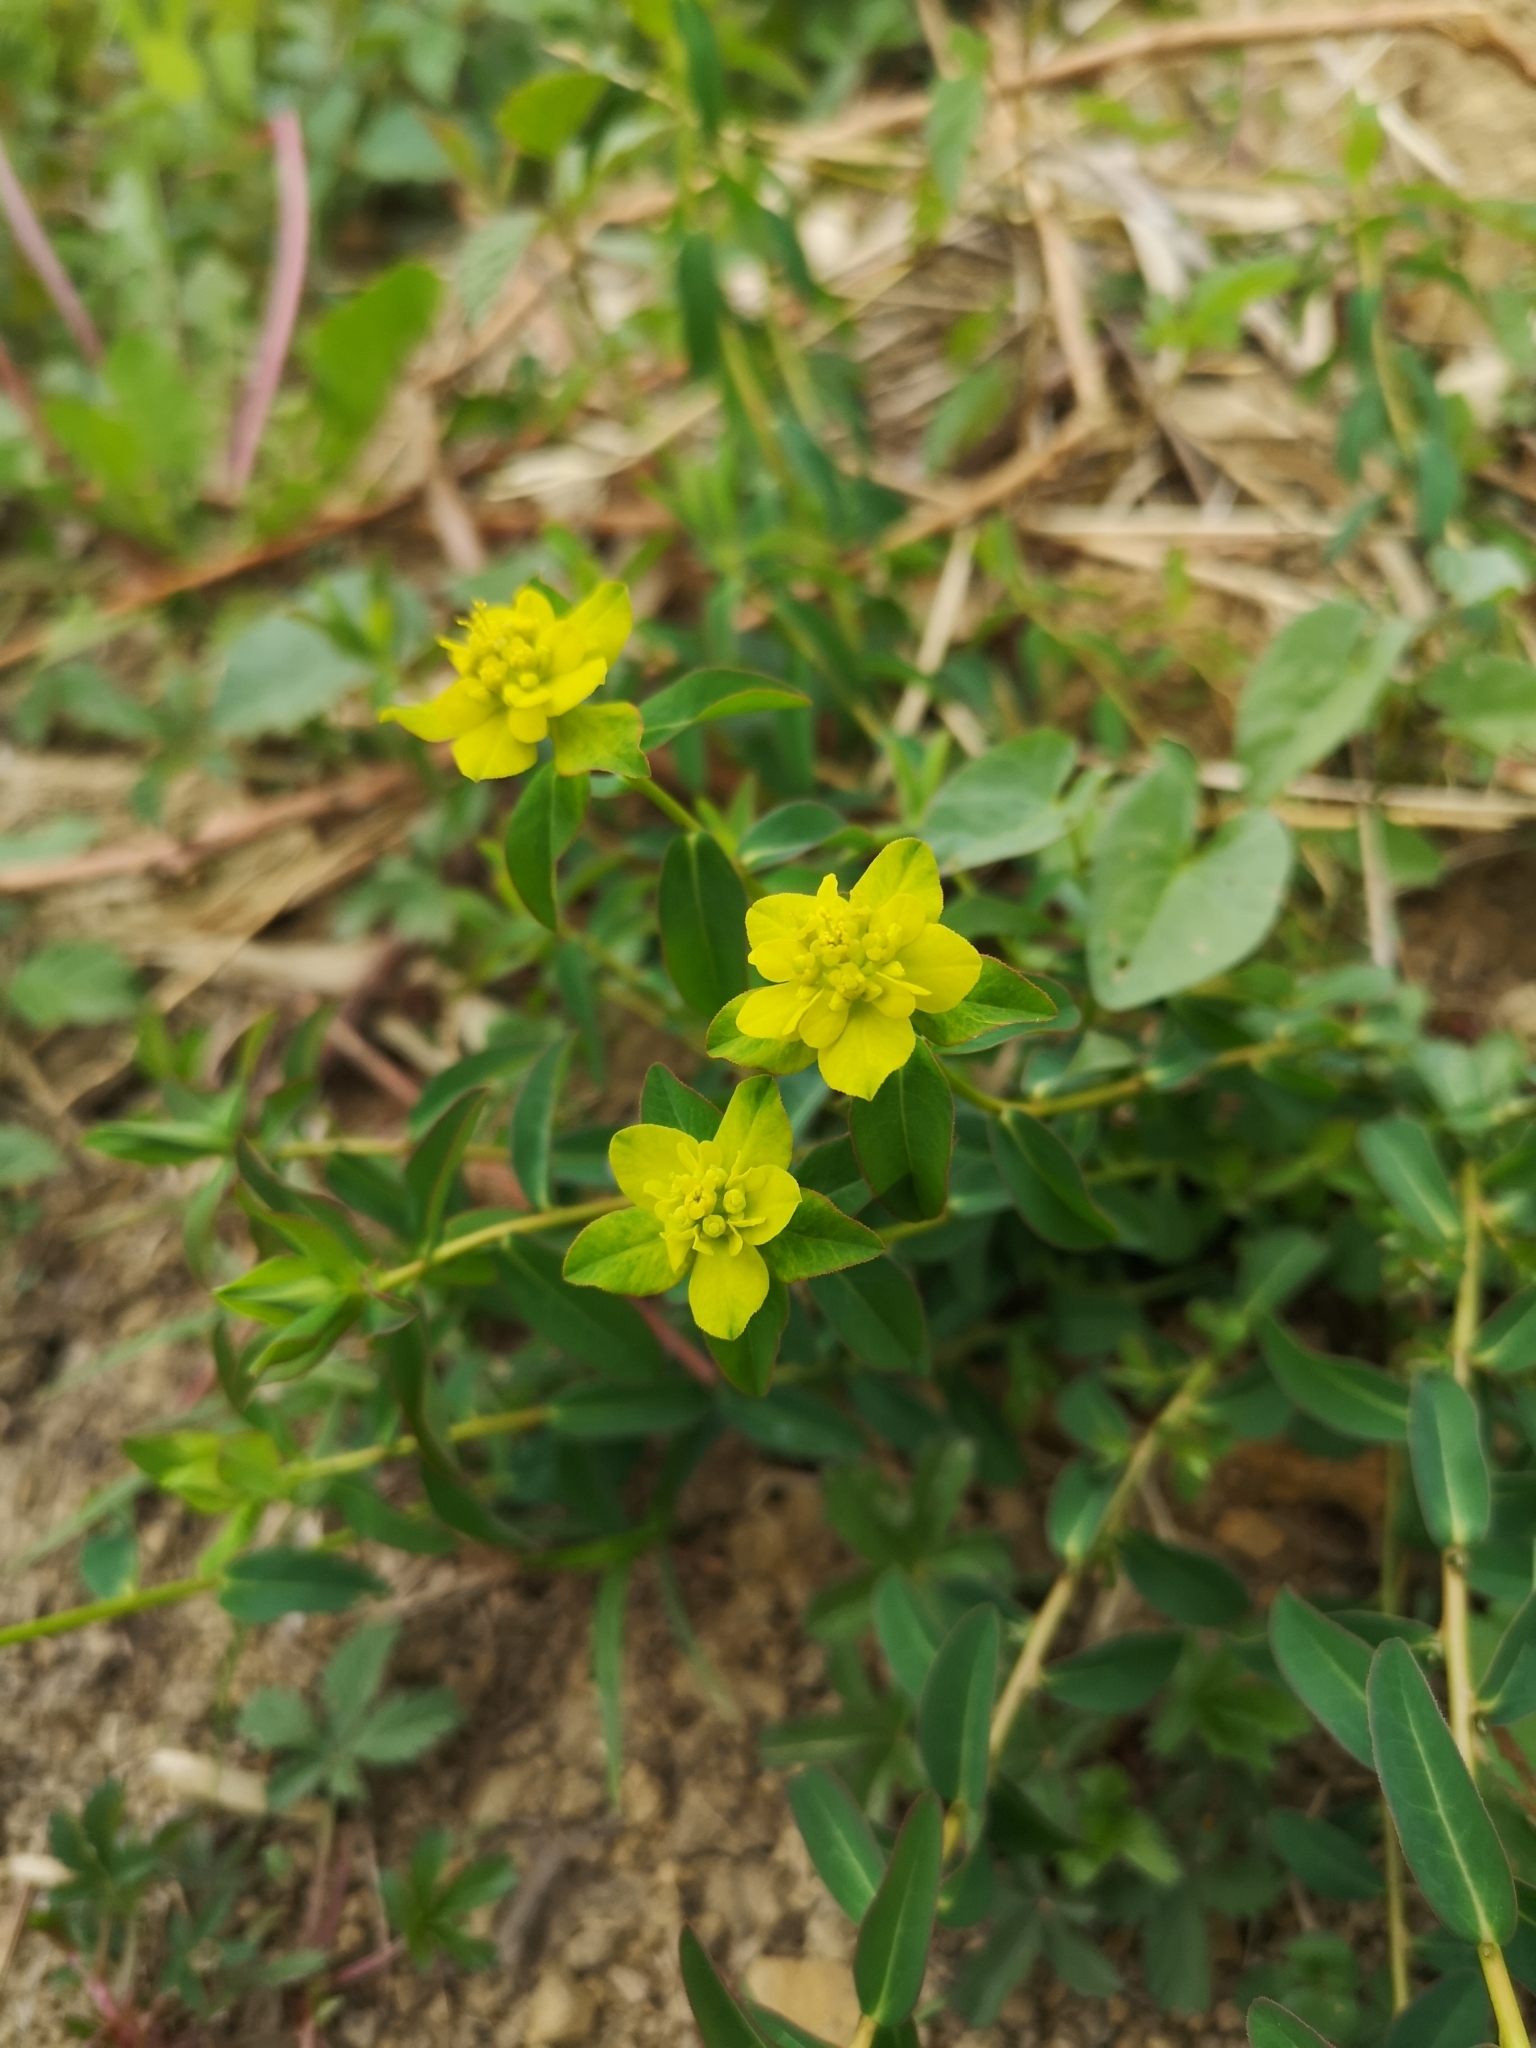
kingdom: Plantae
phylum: Tracheophyta
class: Magnoliopsida
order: Malpighiales
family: Euphorbiaceae
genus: Euphorbia
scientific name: Euphorbia verrucosa
